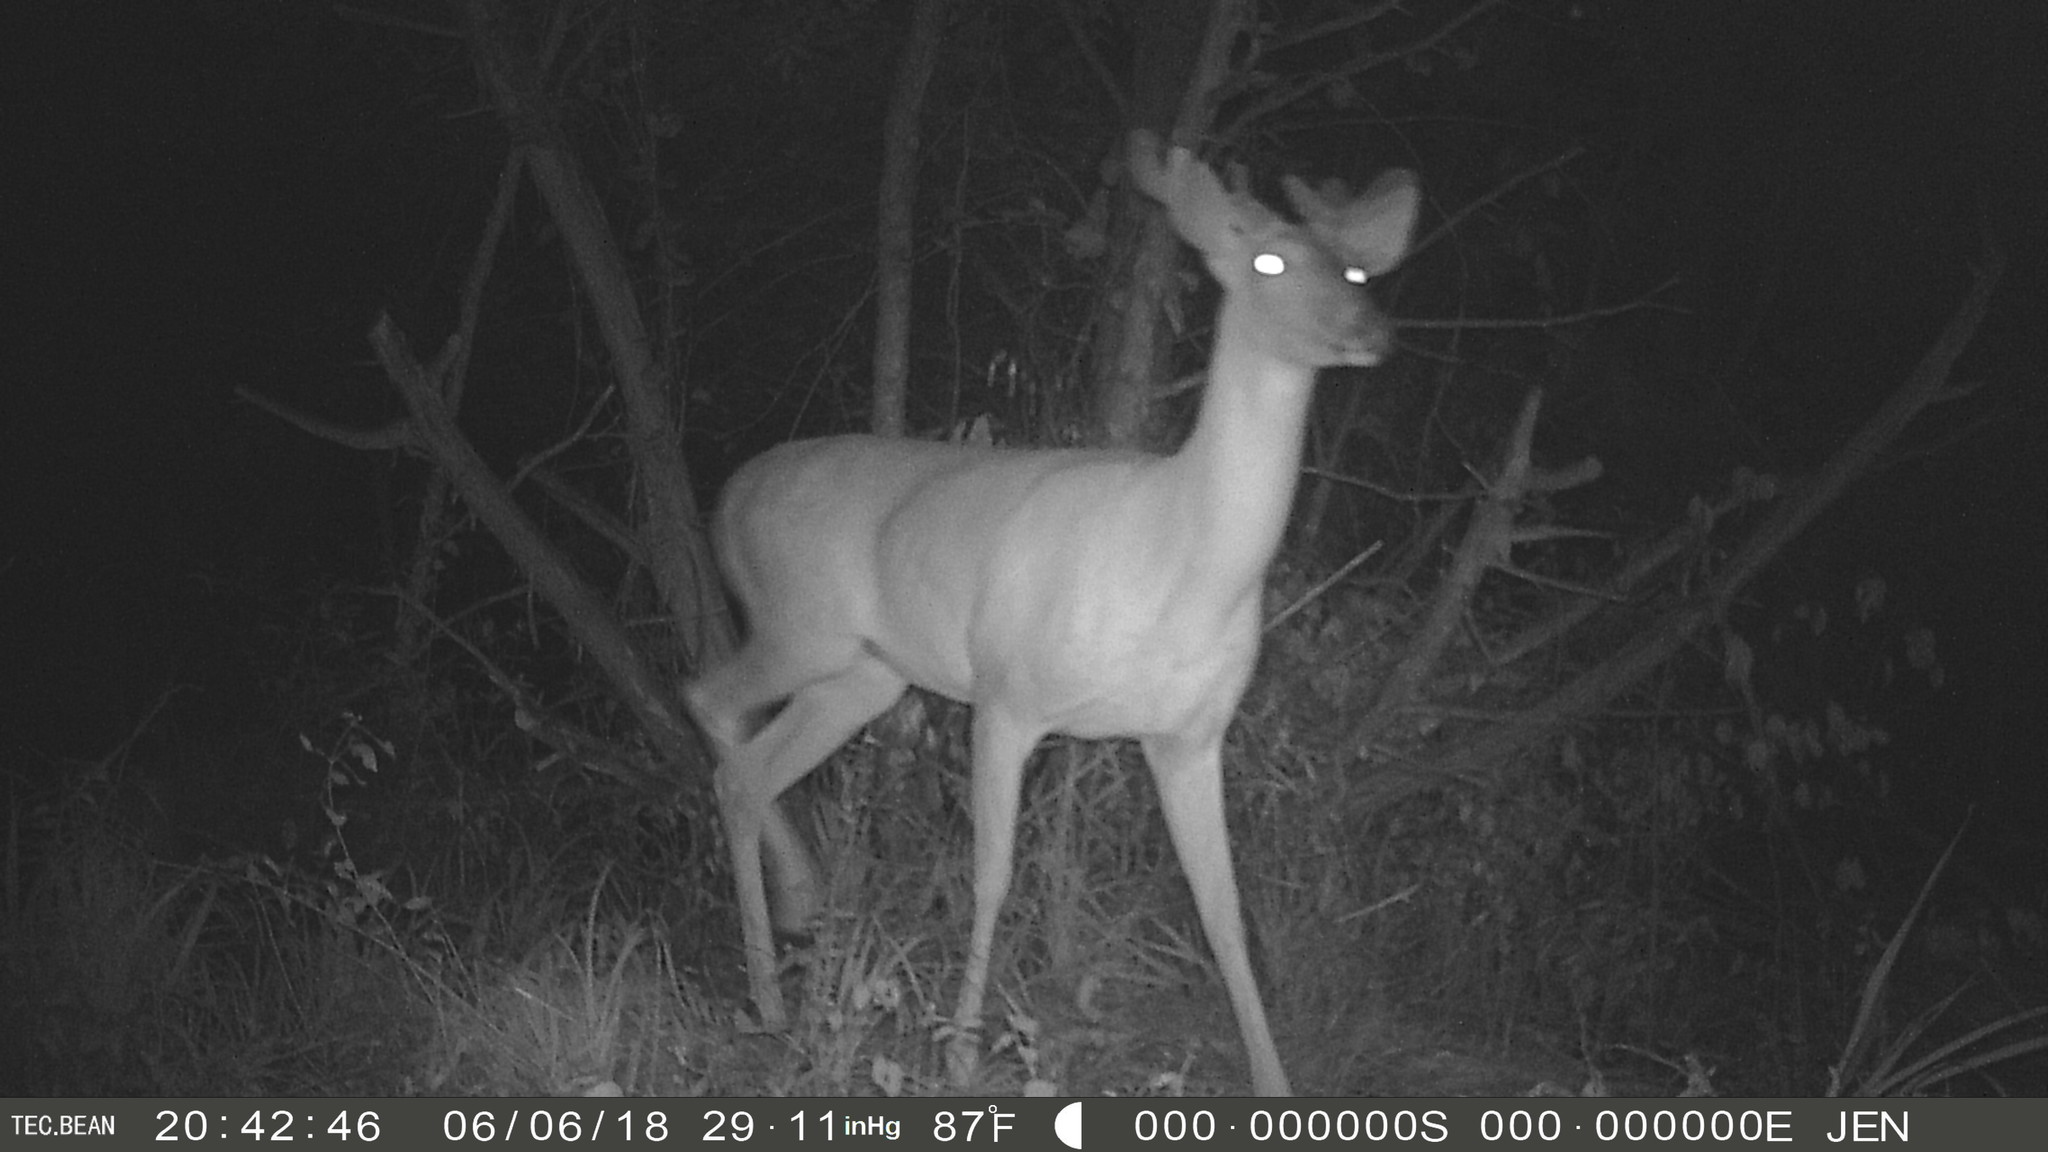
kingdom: Animalia
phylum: Chordata
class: Mammalia
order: Artiodactyla
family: Cervidae
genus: Odocoileus
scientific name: Odocoileus virginianus
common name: White-tailed deer
